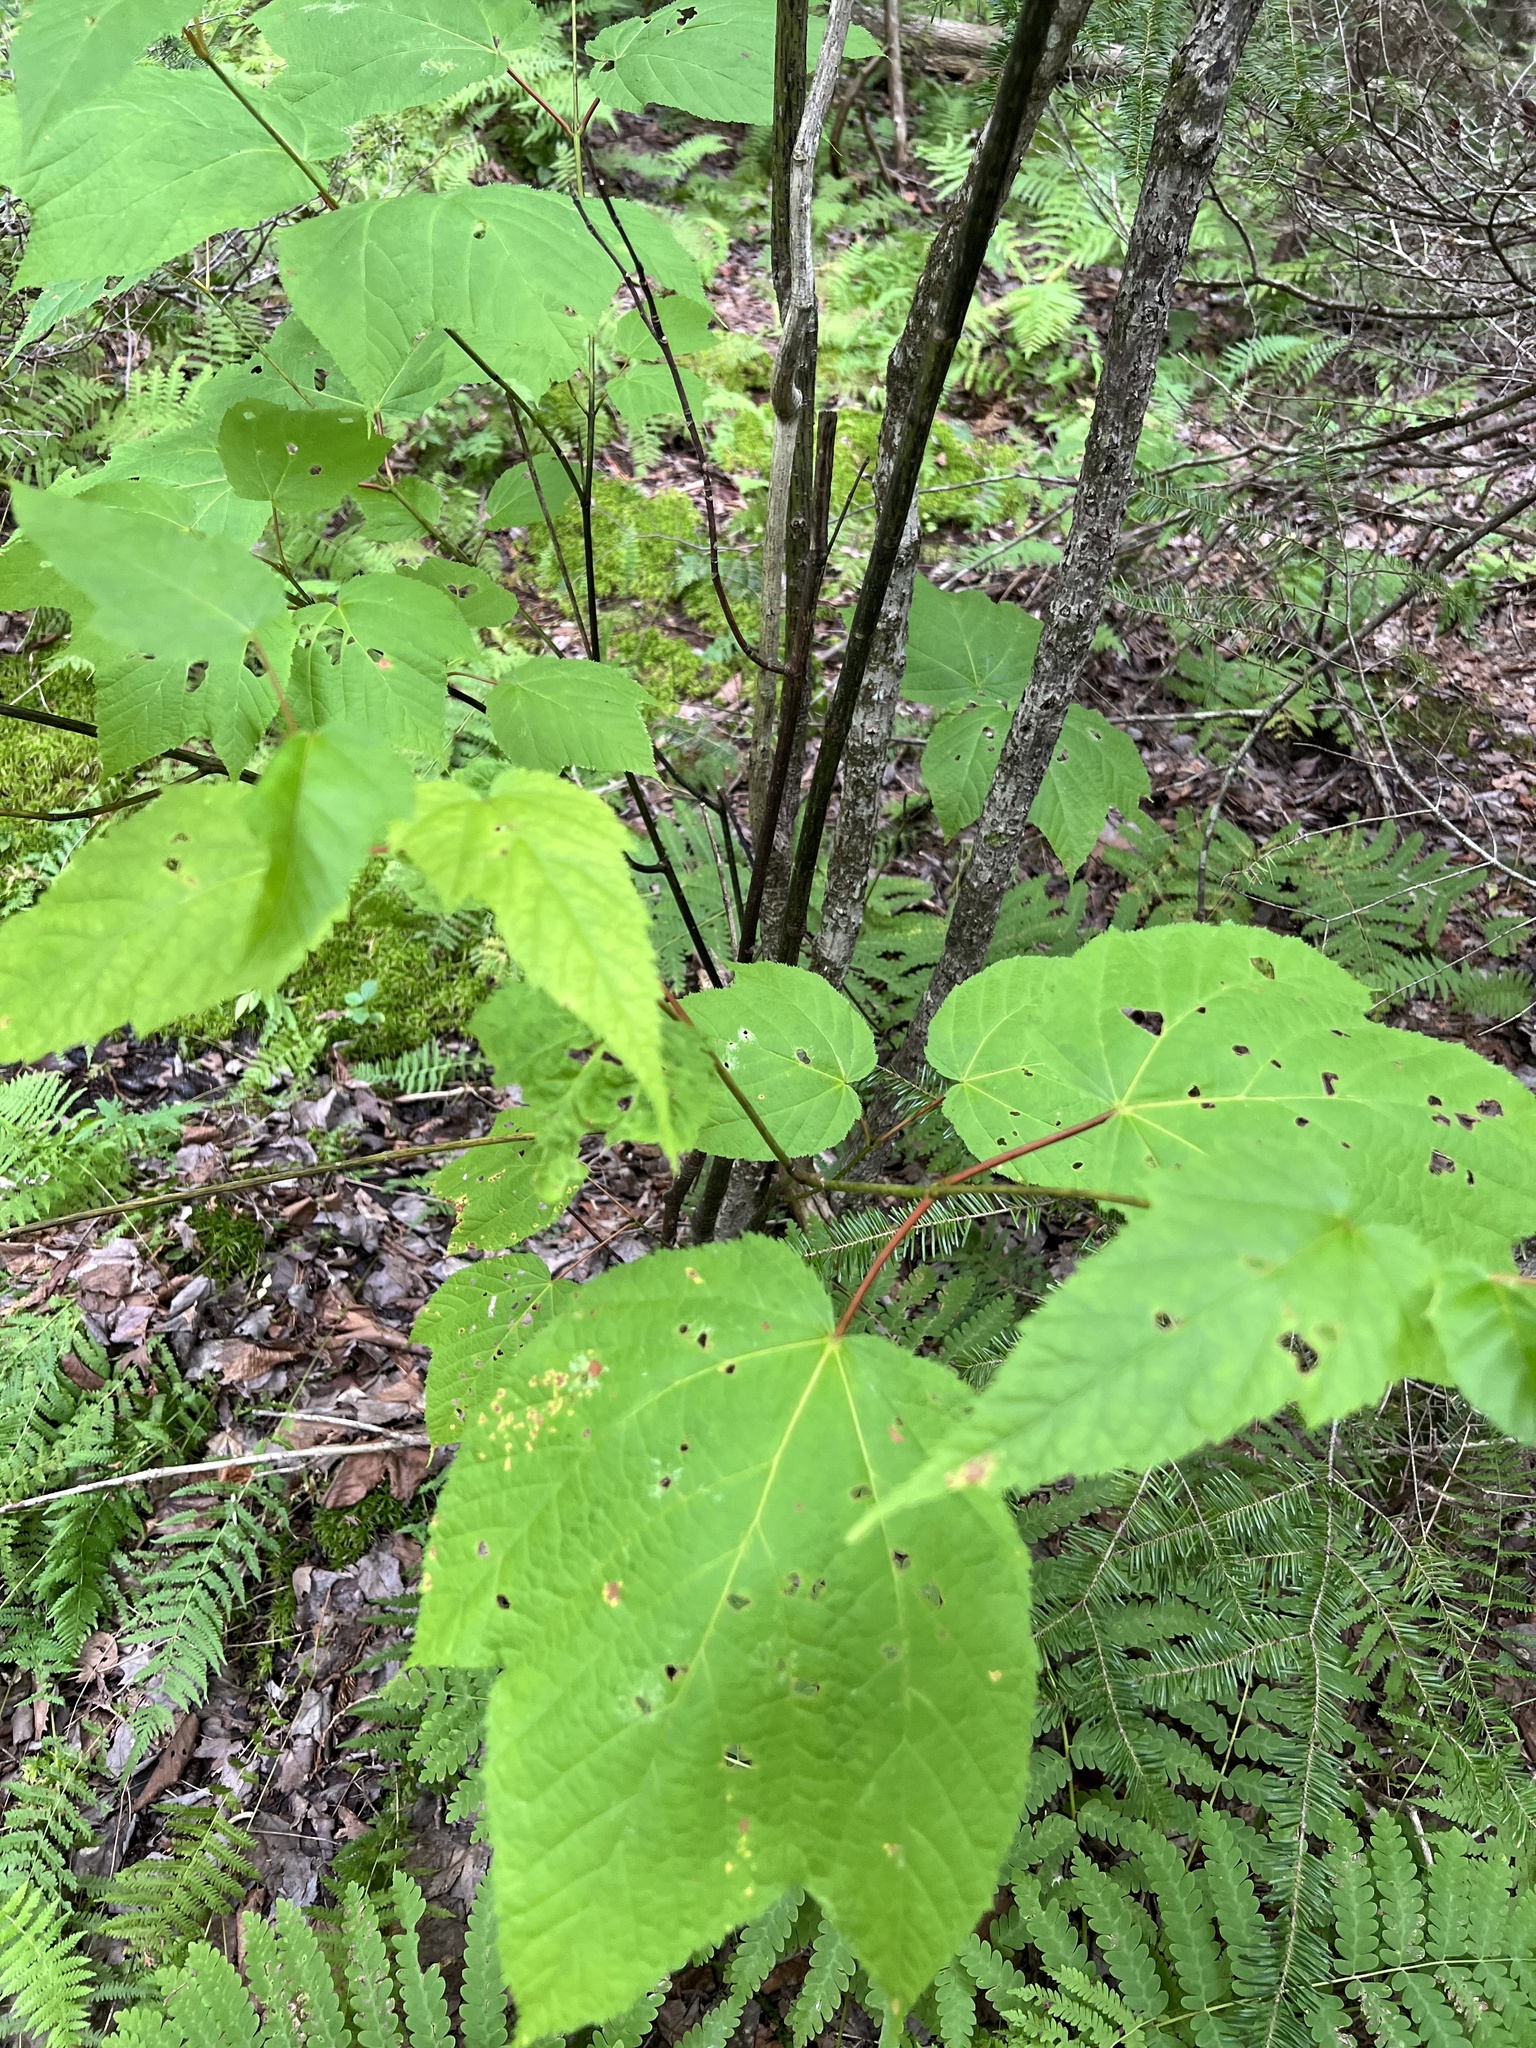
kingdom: Plantae
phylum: Tracheophyta
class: Magnoliopsida
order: Sapindales
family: Sapindaceae
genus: Acer
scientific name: Acer pensylvanicum
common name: Moosewood
